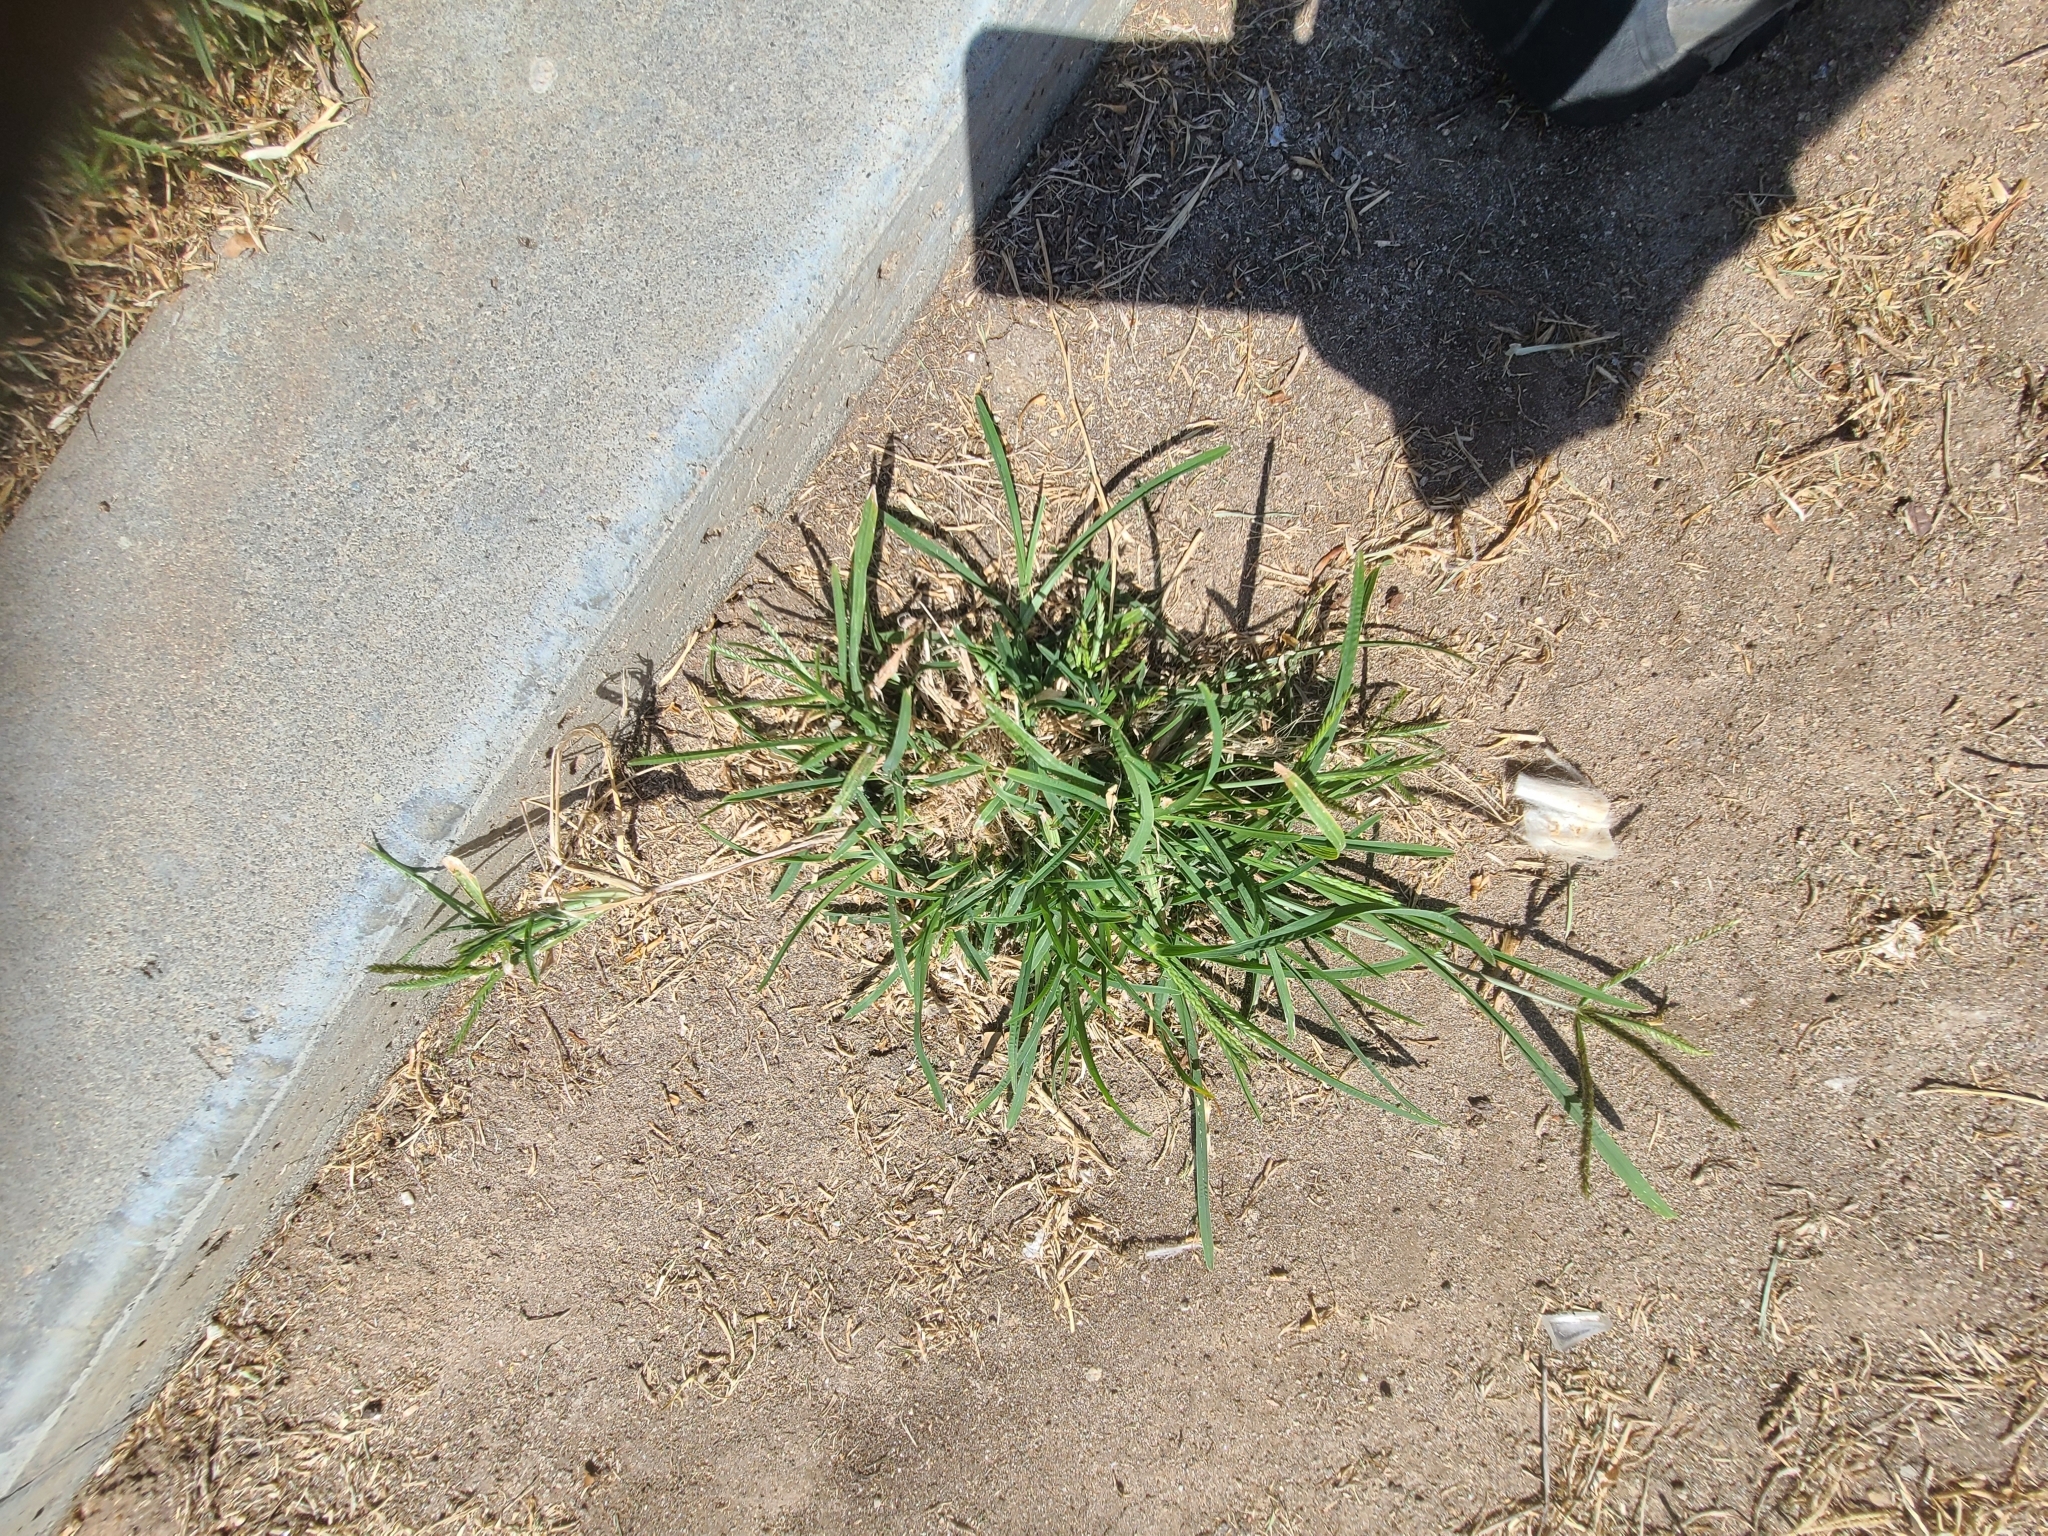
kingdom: Plantae
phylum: Tracheophyta
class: Liliopsida
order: Poales
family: Poaceae
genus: Eleusine
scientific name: Eleusine indica
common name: Yard-grass
